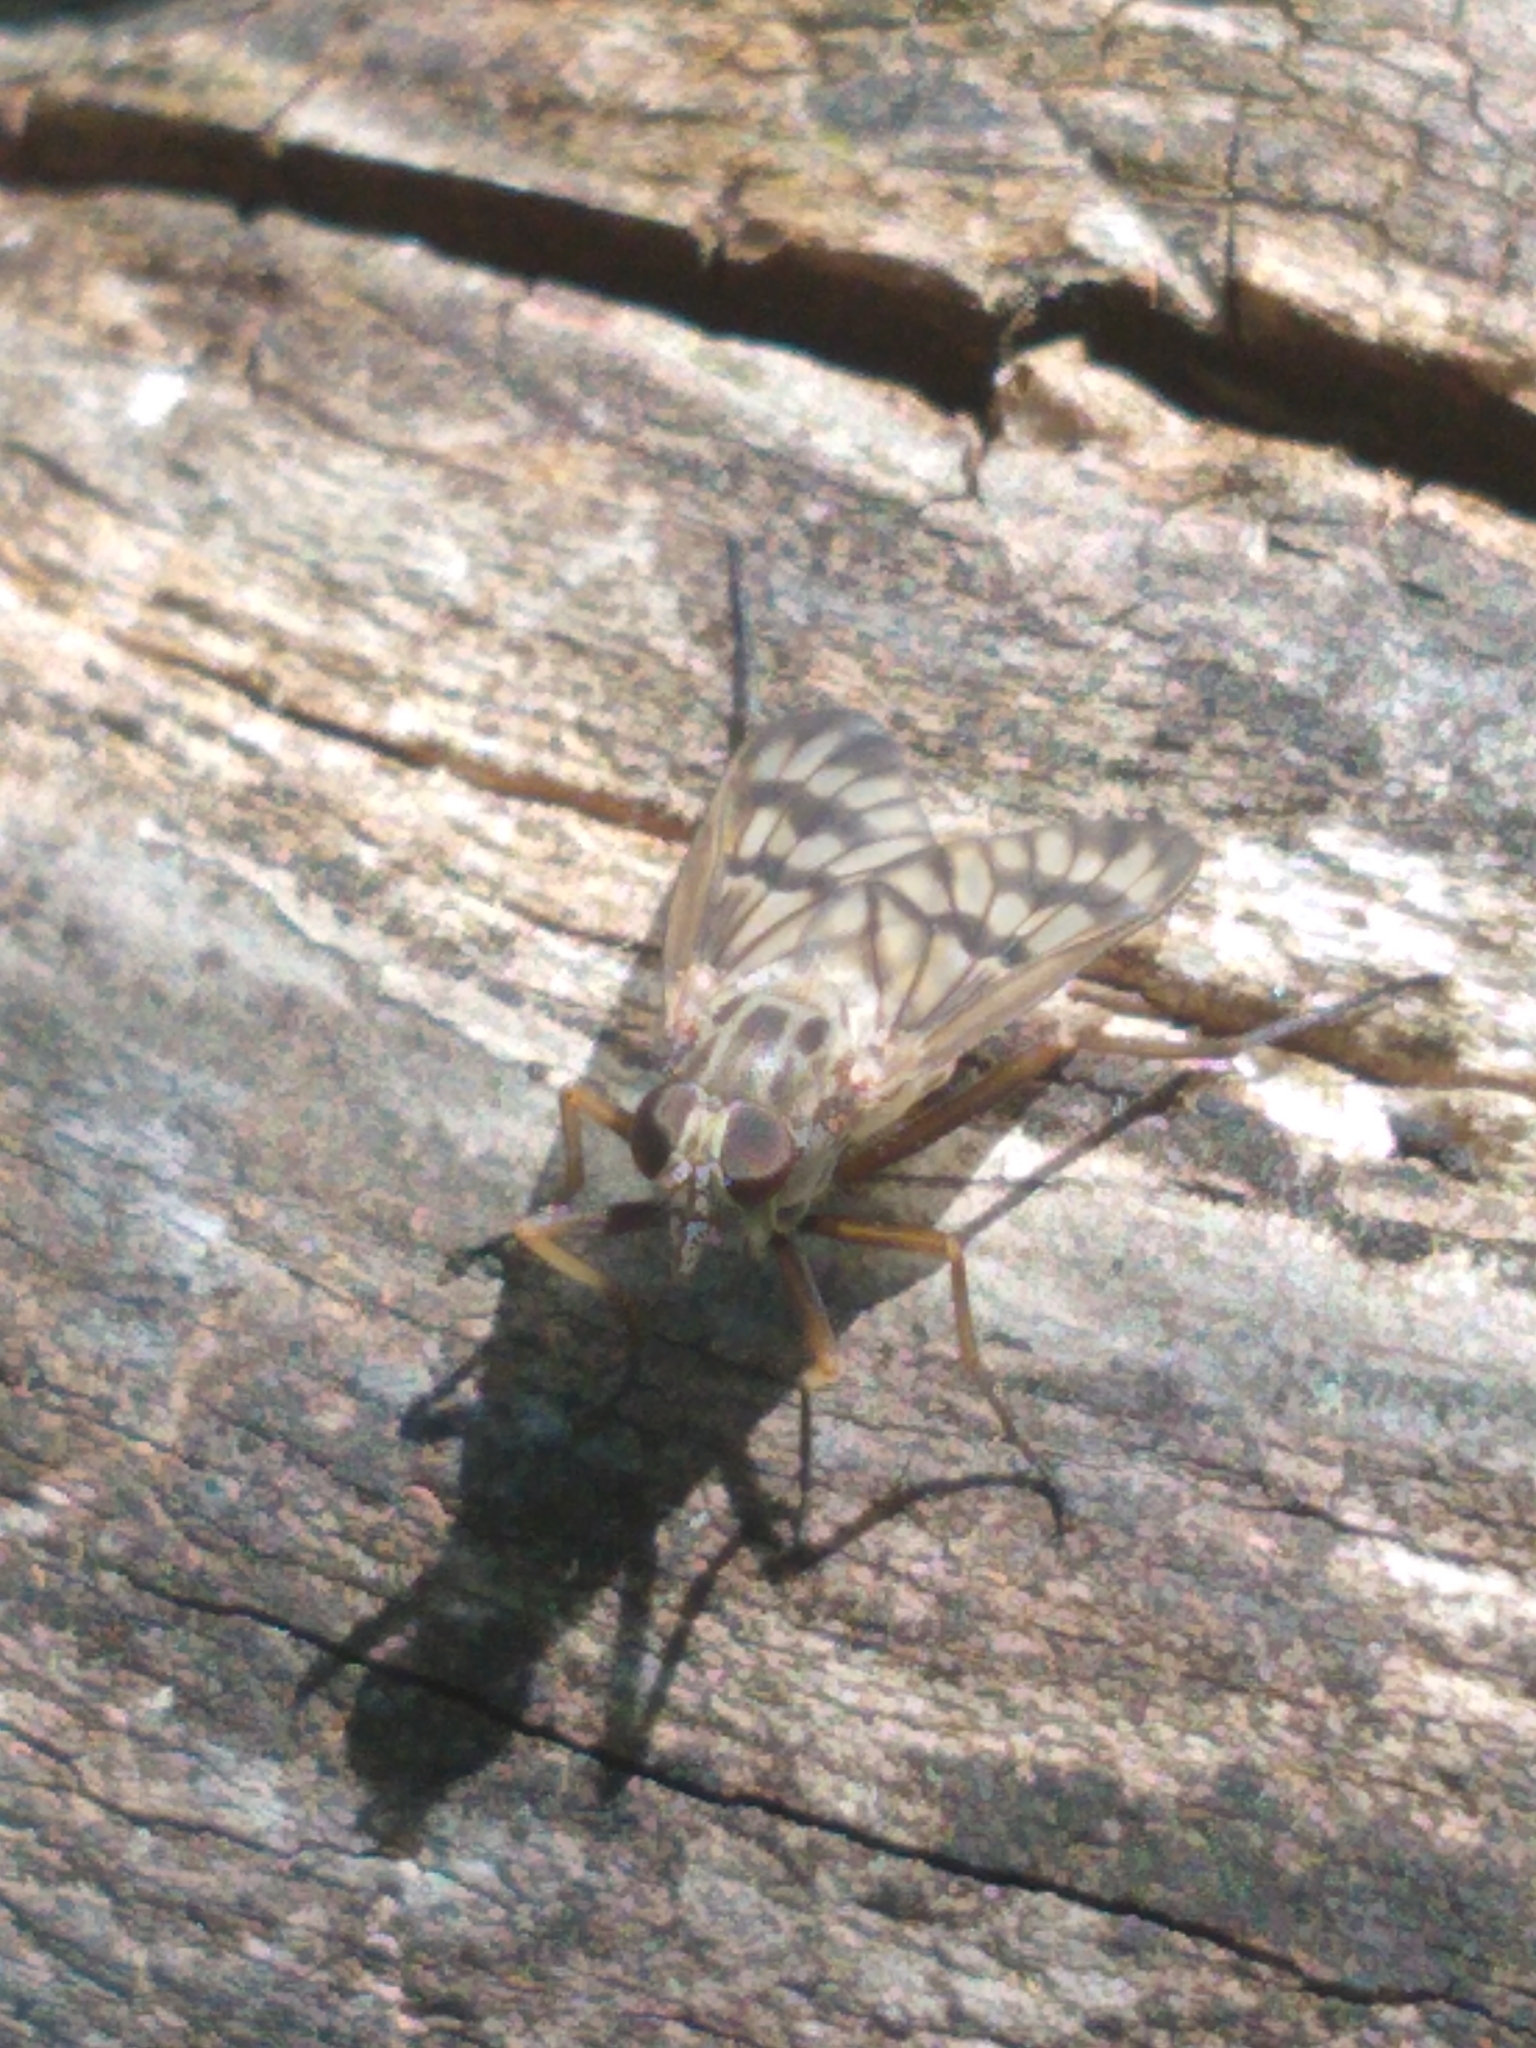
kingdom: Animalia
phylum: Arthropoda
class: Insecta
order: Diptera
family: Rhagionidae
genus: Rhagio
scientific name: Rhagio mystaceus
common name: Common snipe fly
